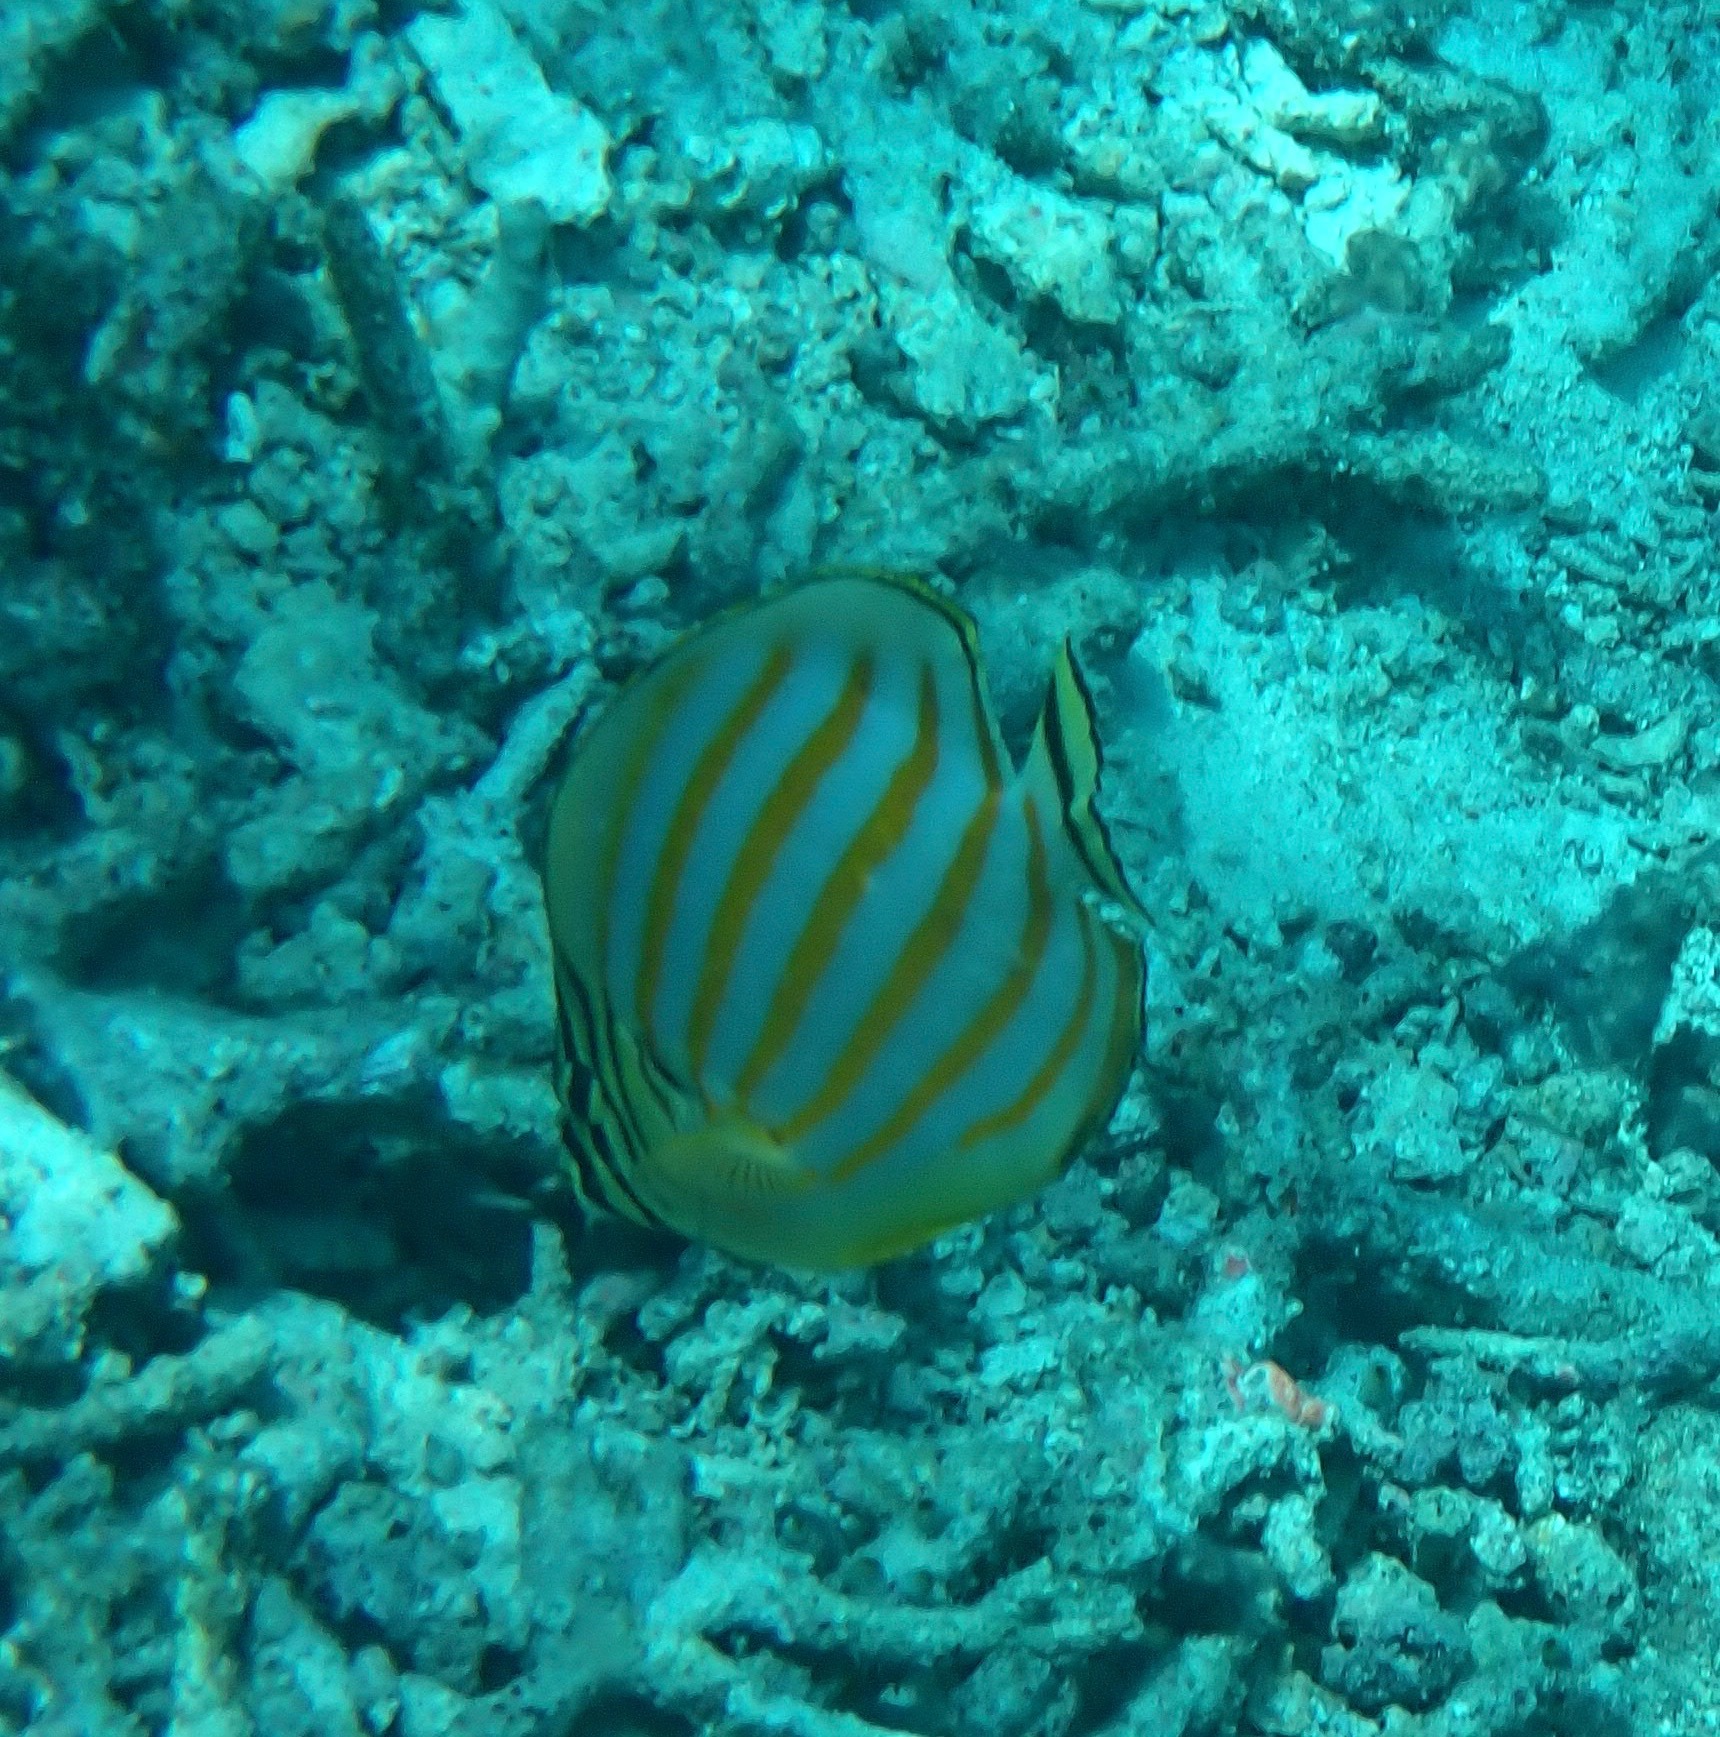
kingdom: Animalia
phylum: Chordata
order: Perciformes
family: Chaetodontidae
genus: Chaetodon
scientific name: Chaetodon ornatissimus
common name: Ornate butterflyfish
